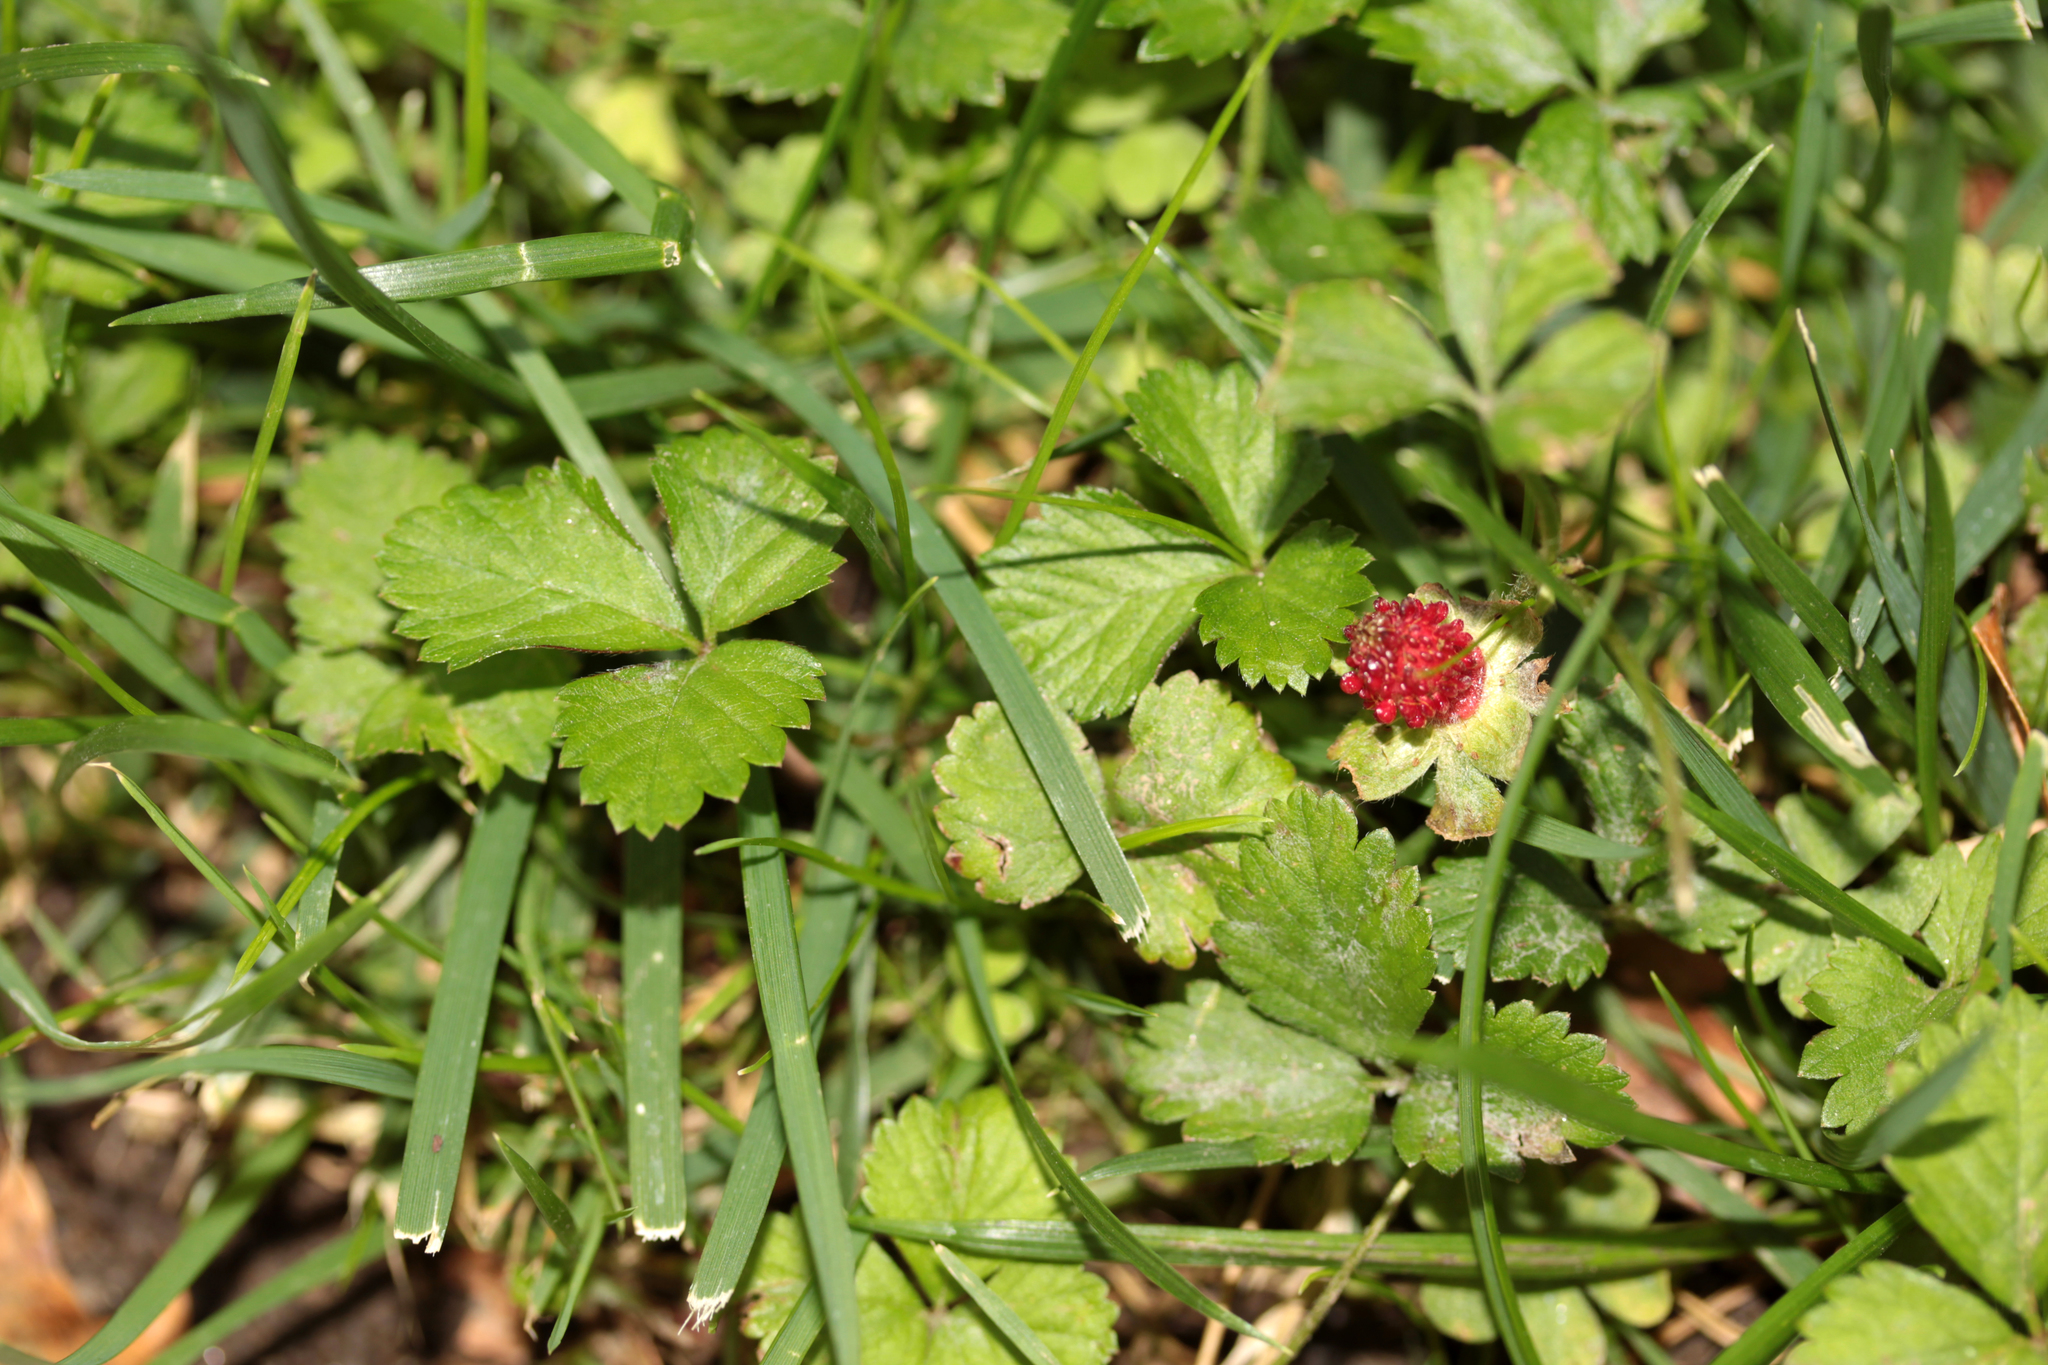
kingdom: Plantae
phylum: Tracheophyta
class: Magnoliopsida
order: Rosales
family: Rosaceae
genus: Potentilla
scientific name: Potentilla indica
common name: Yellow-flowered strawberry
